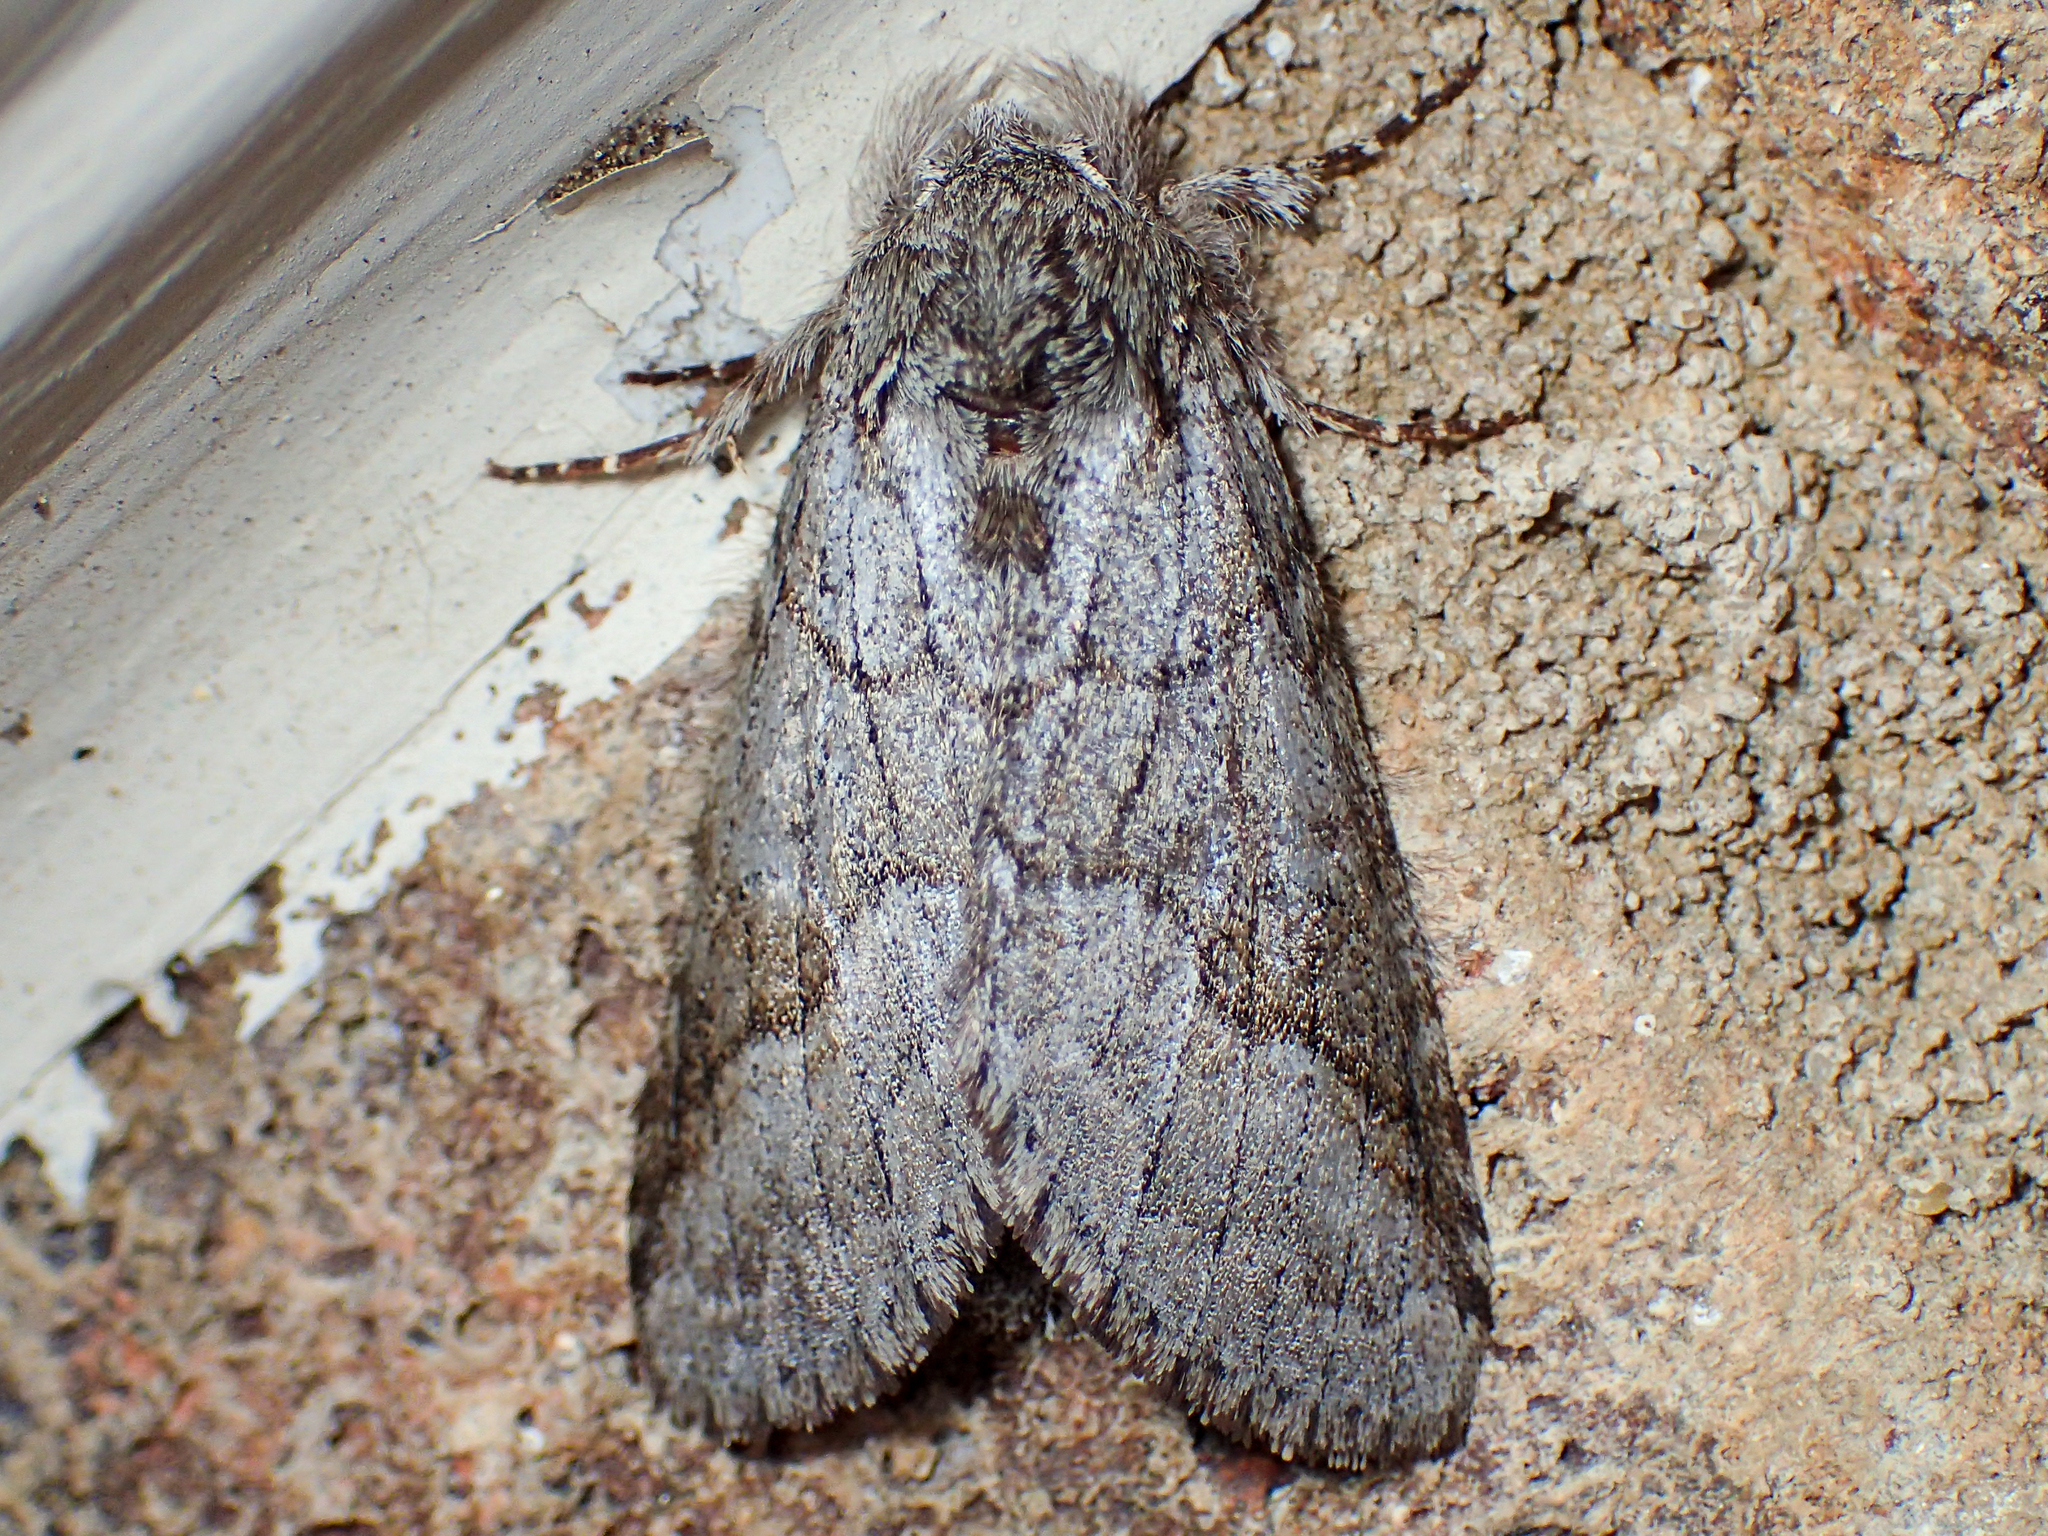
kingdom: Animalia
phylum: Arthropoda
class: Insecta
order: Lepidoptera
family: Notodontidae
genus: Lochmaeus
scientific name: Lochmaeus bilineata
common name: Double-lined prominent
